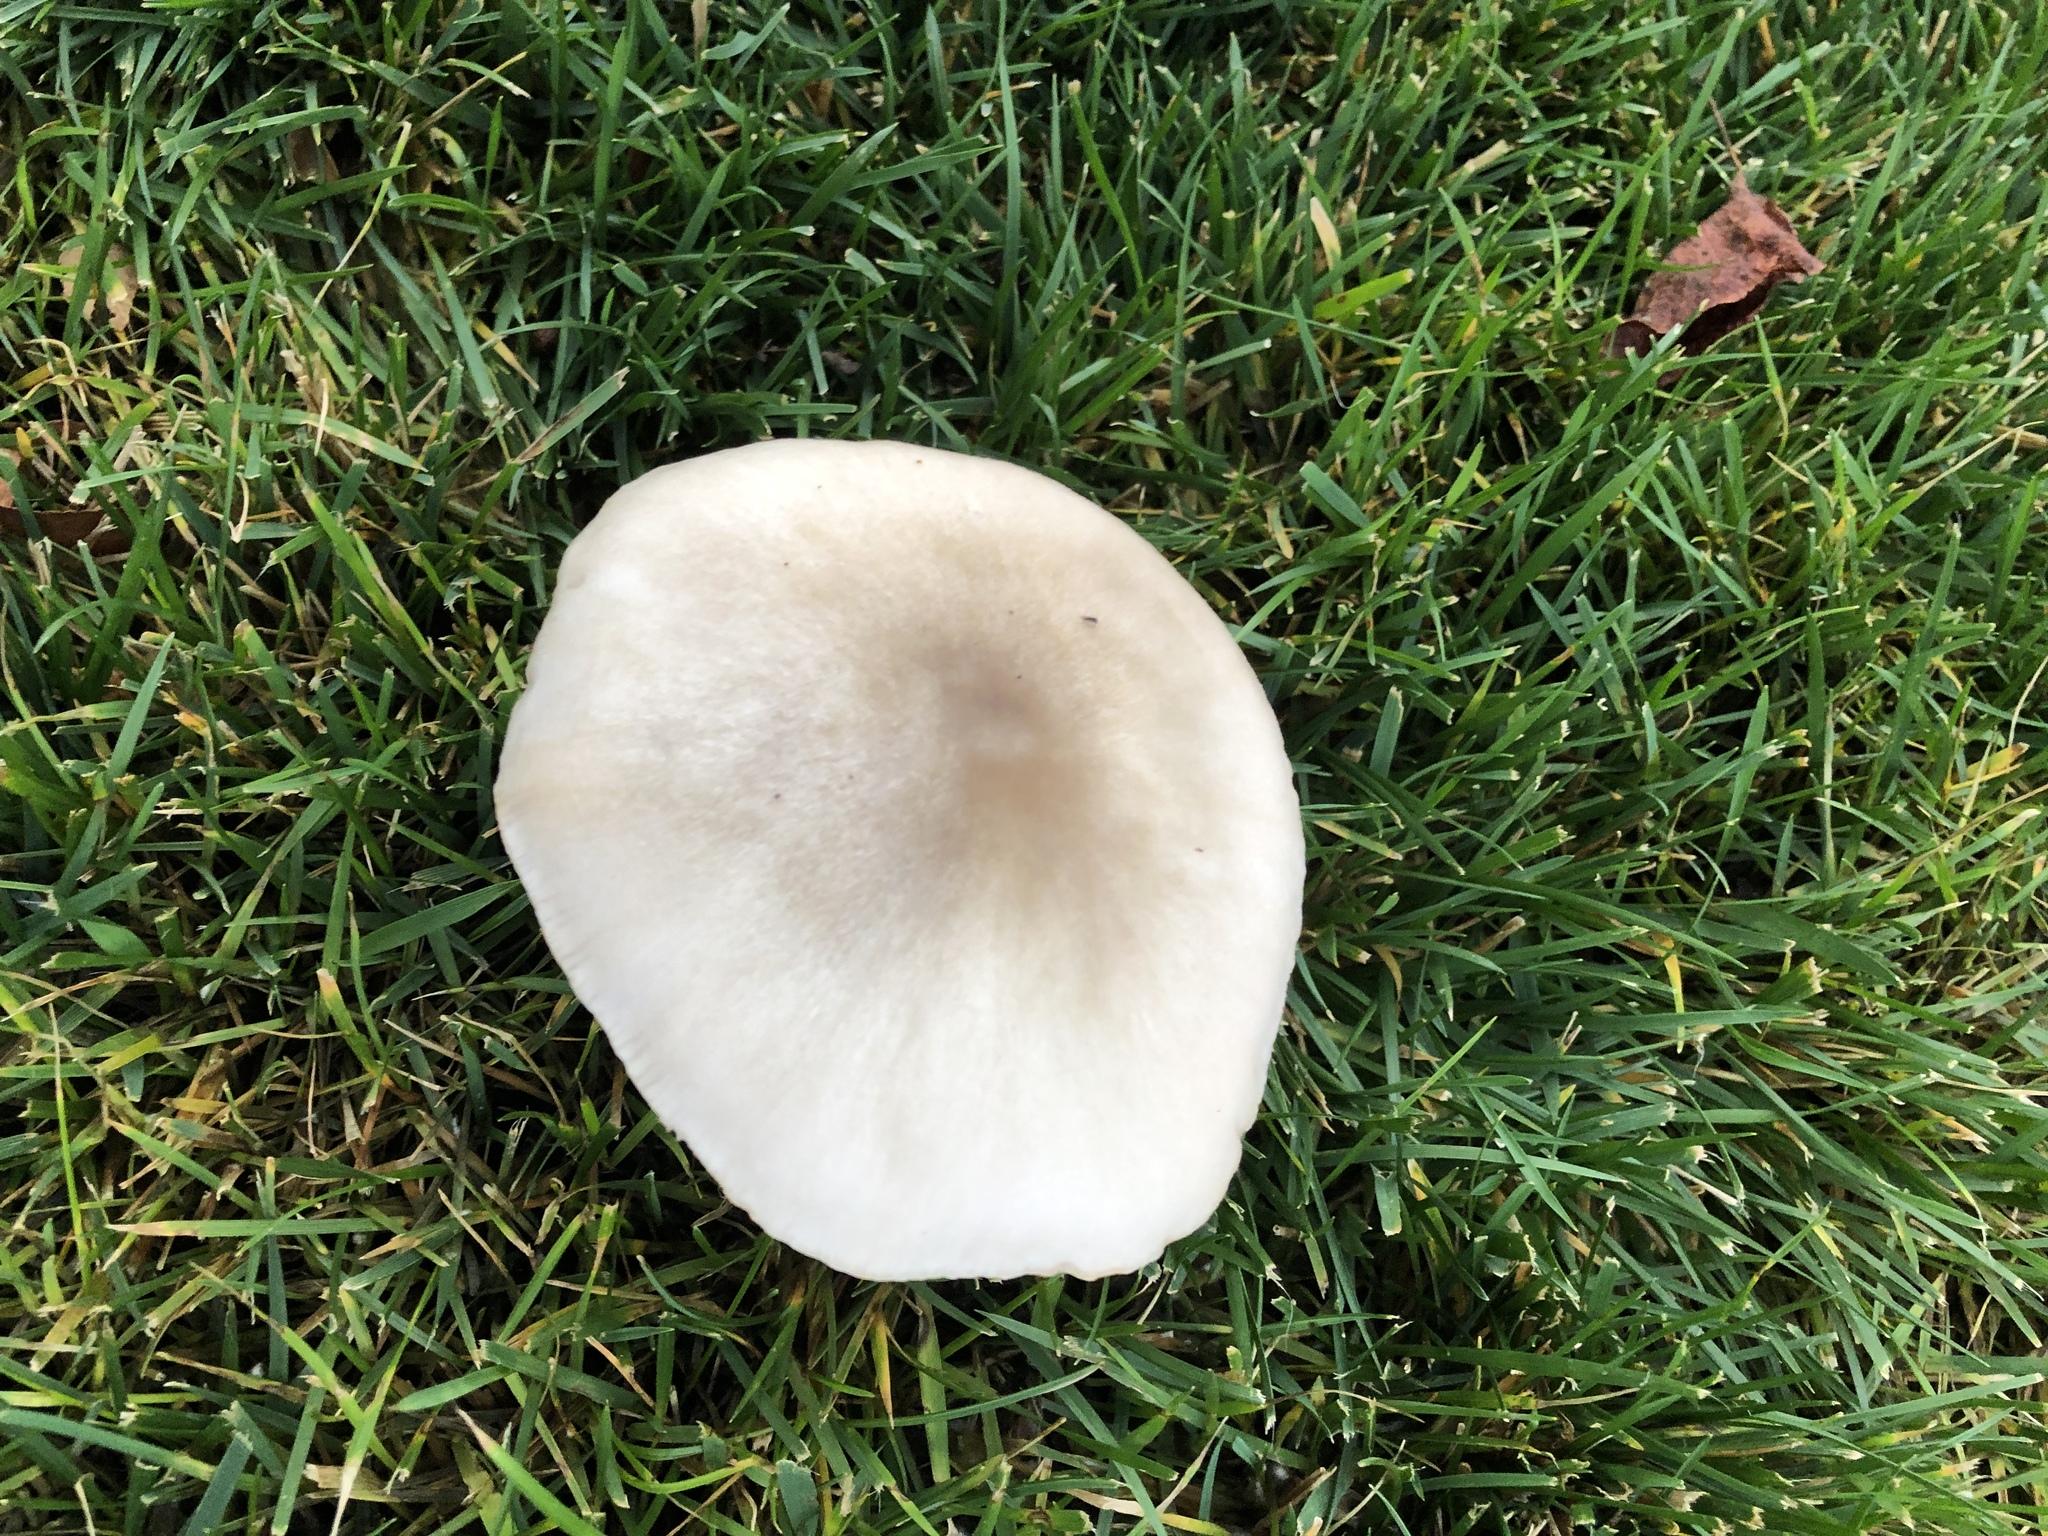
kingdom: Fungi
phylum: Basidiomycota
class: Agaricomycetes
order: Agaricales
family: Pluteaceae
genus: Volvopluteus
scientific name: Volvopluteus gloiocephalus
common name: Stubble rosegill
